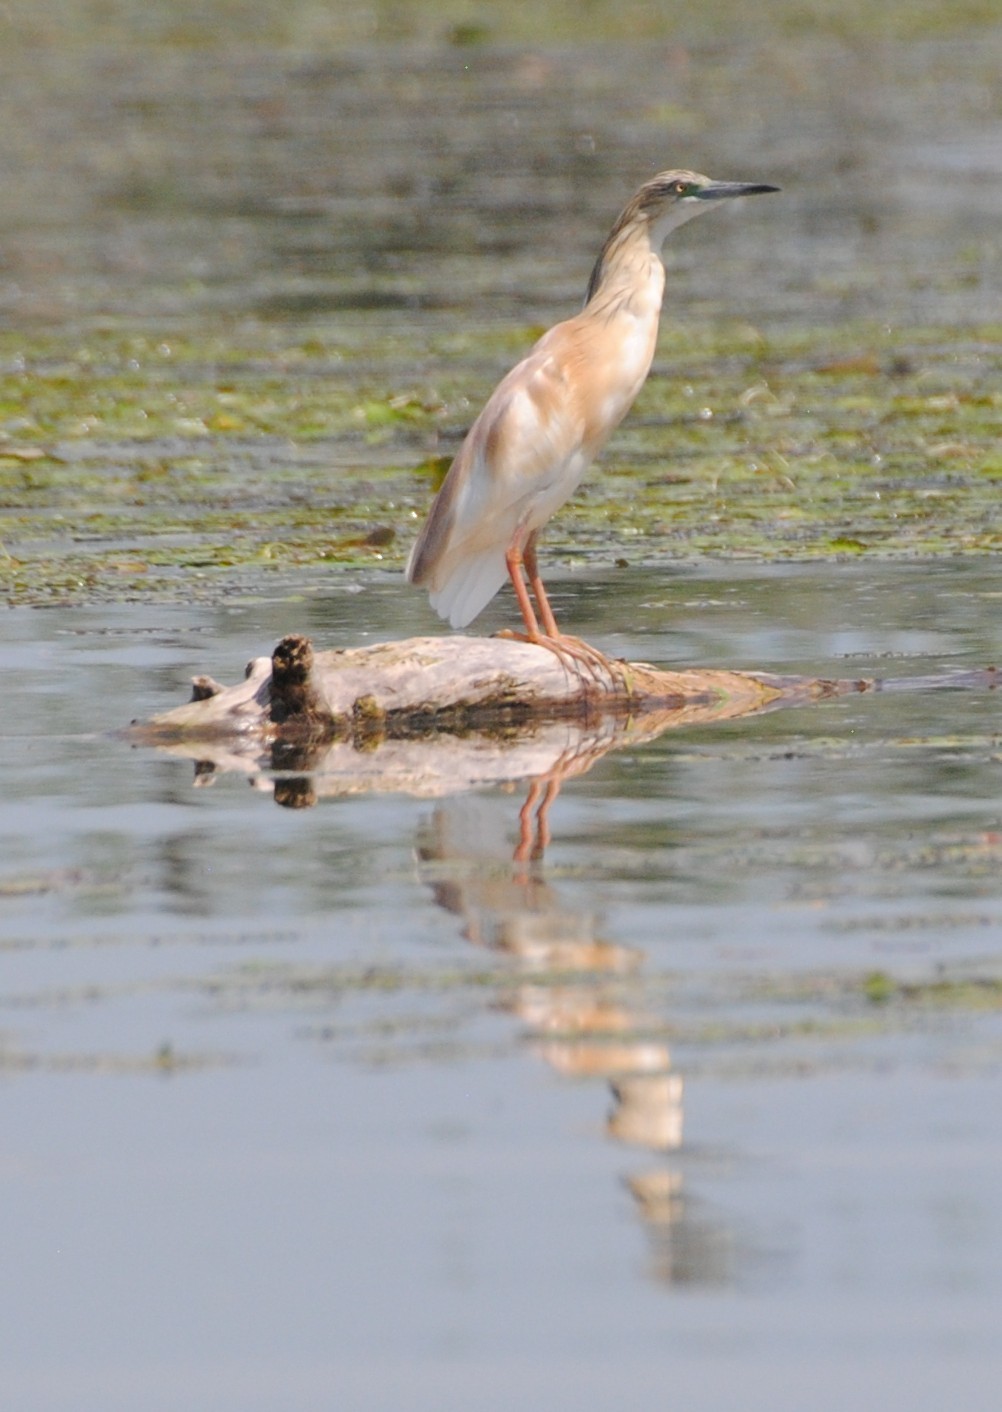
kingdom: Animalia
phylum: Chordata
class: Aves
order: Pelecaniformes
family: Ardeidae
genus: Ardeola
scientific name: Ardeola ralloides
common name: Squacco heron
